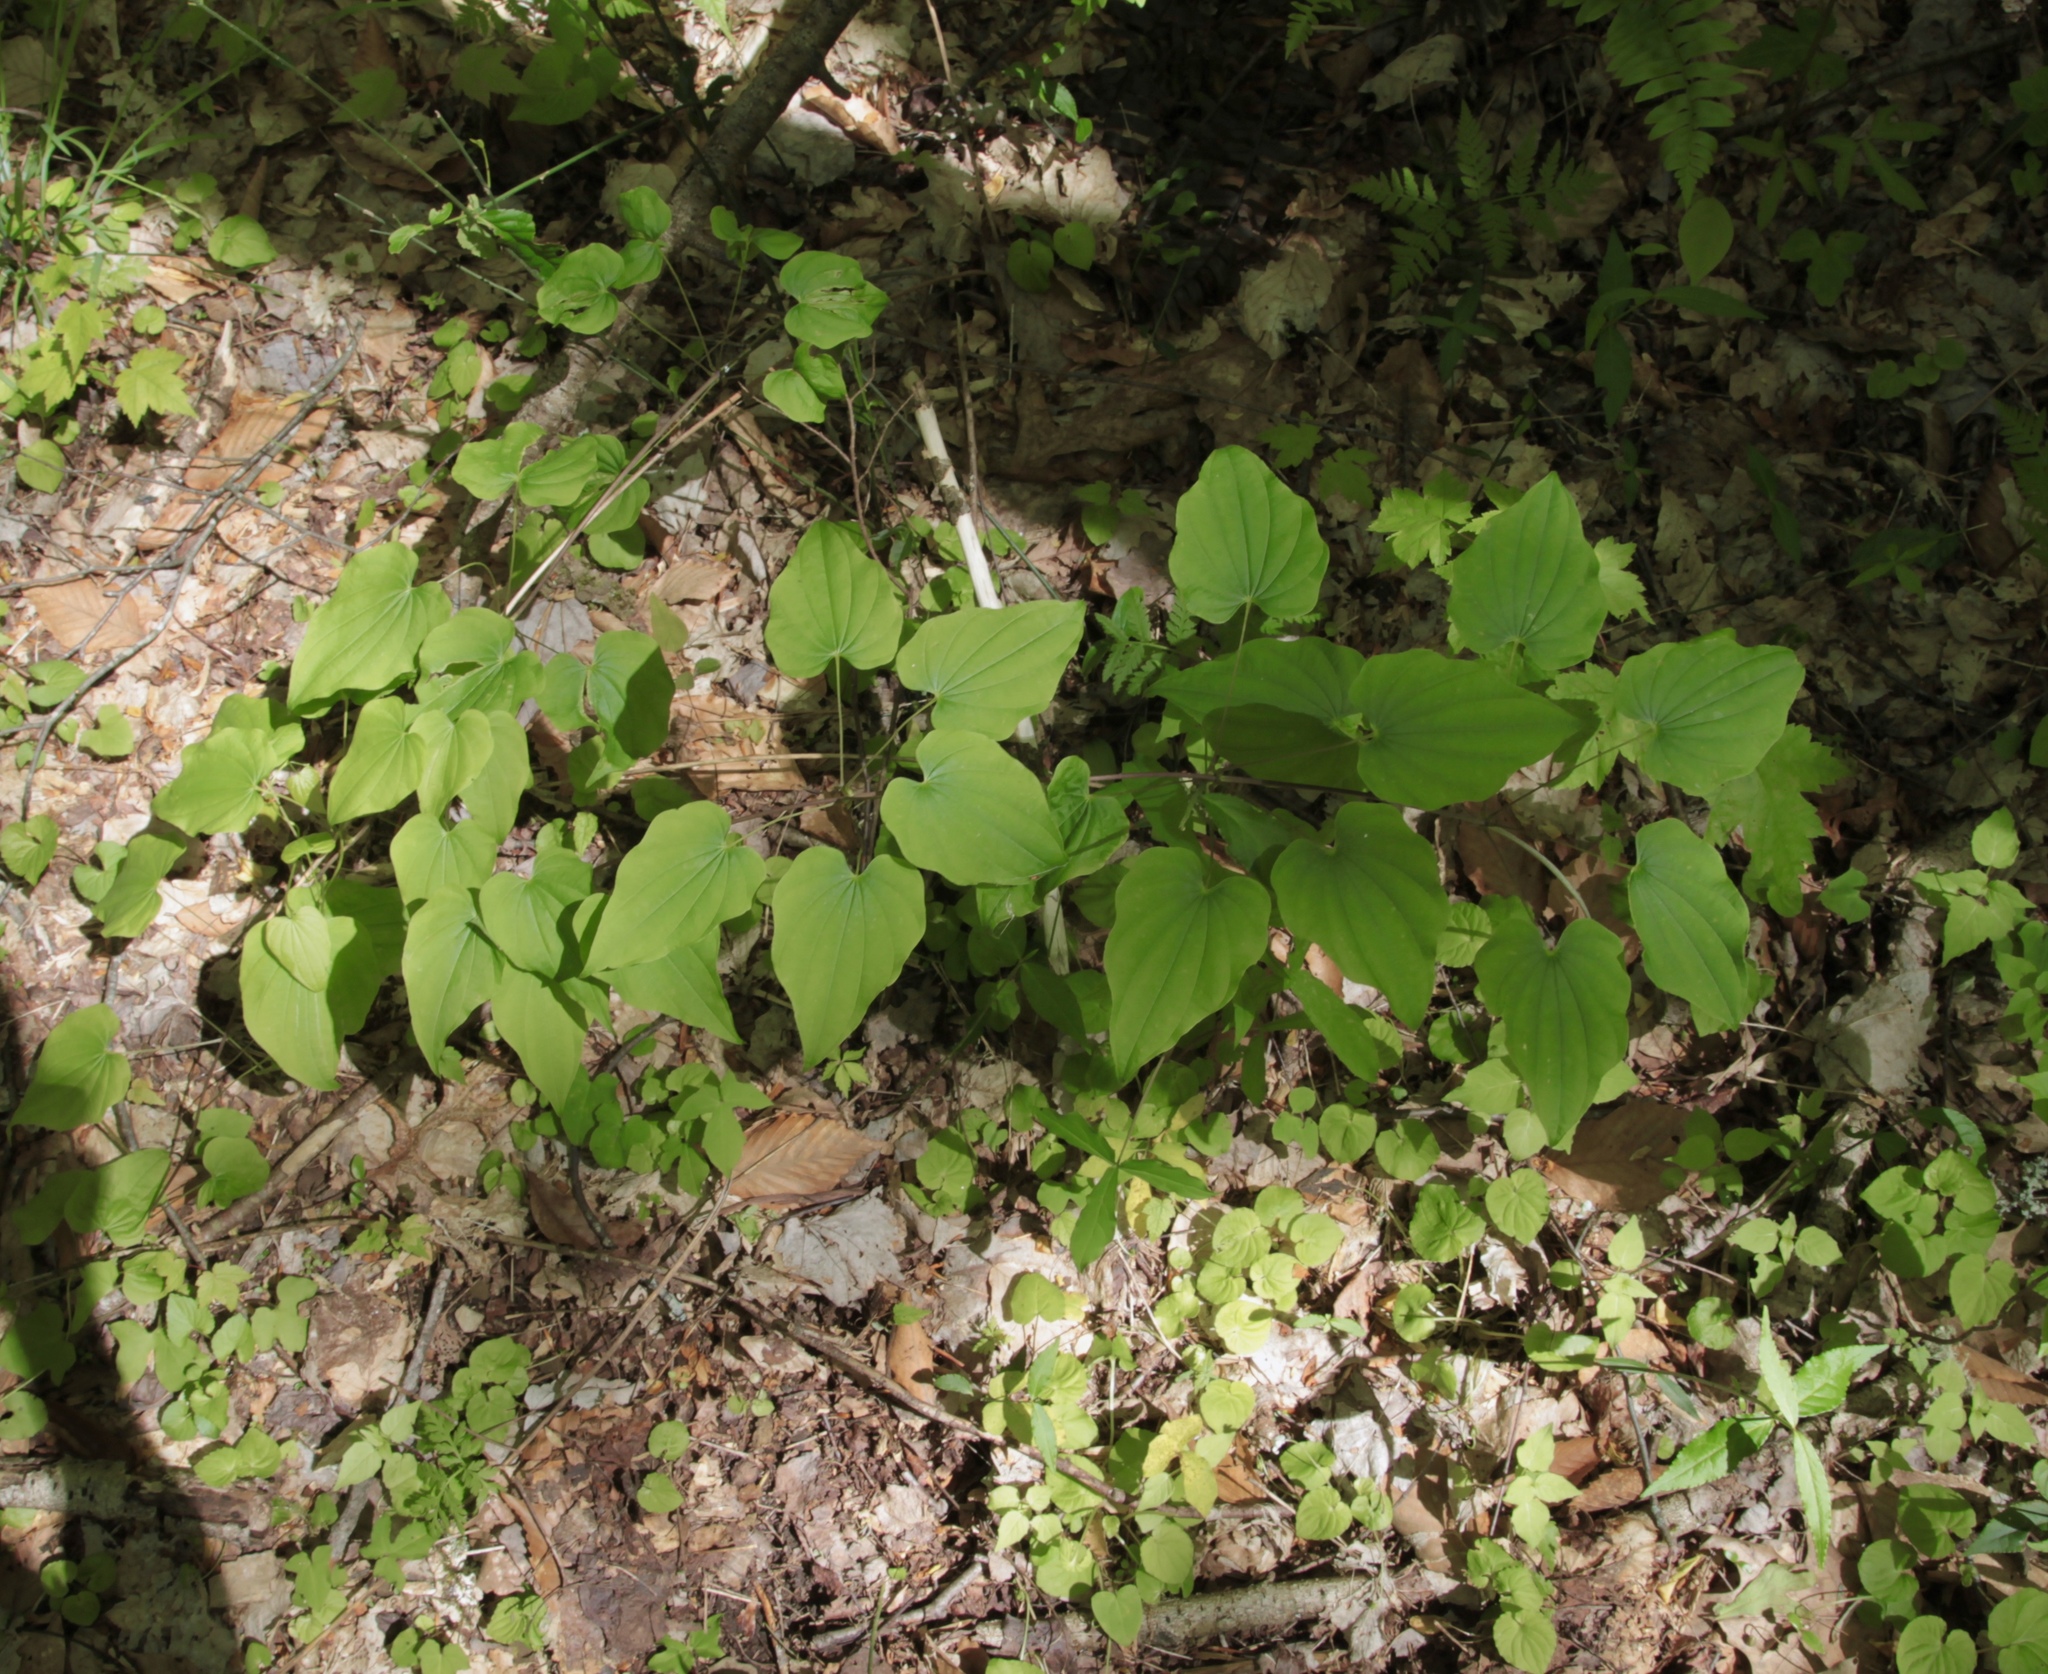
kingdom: Plantae
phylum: Tracheophyta
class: Liliopsida
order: Dioscoreales
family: Dioscoreaceae
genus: Dioscorea
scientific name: Dioscorea villosa
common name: Wild yam
